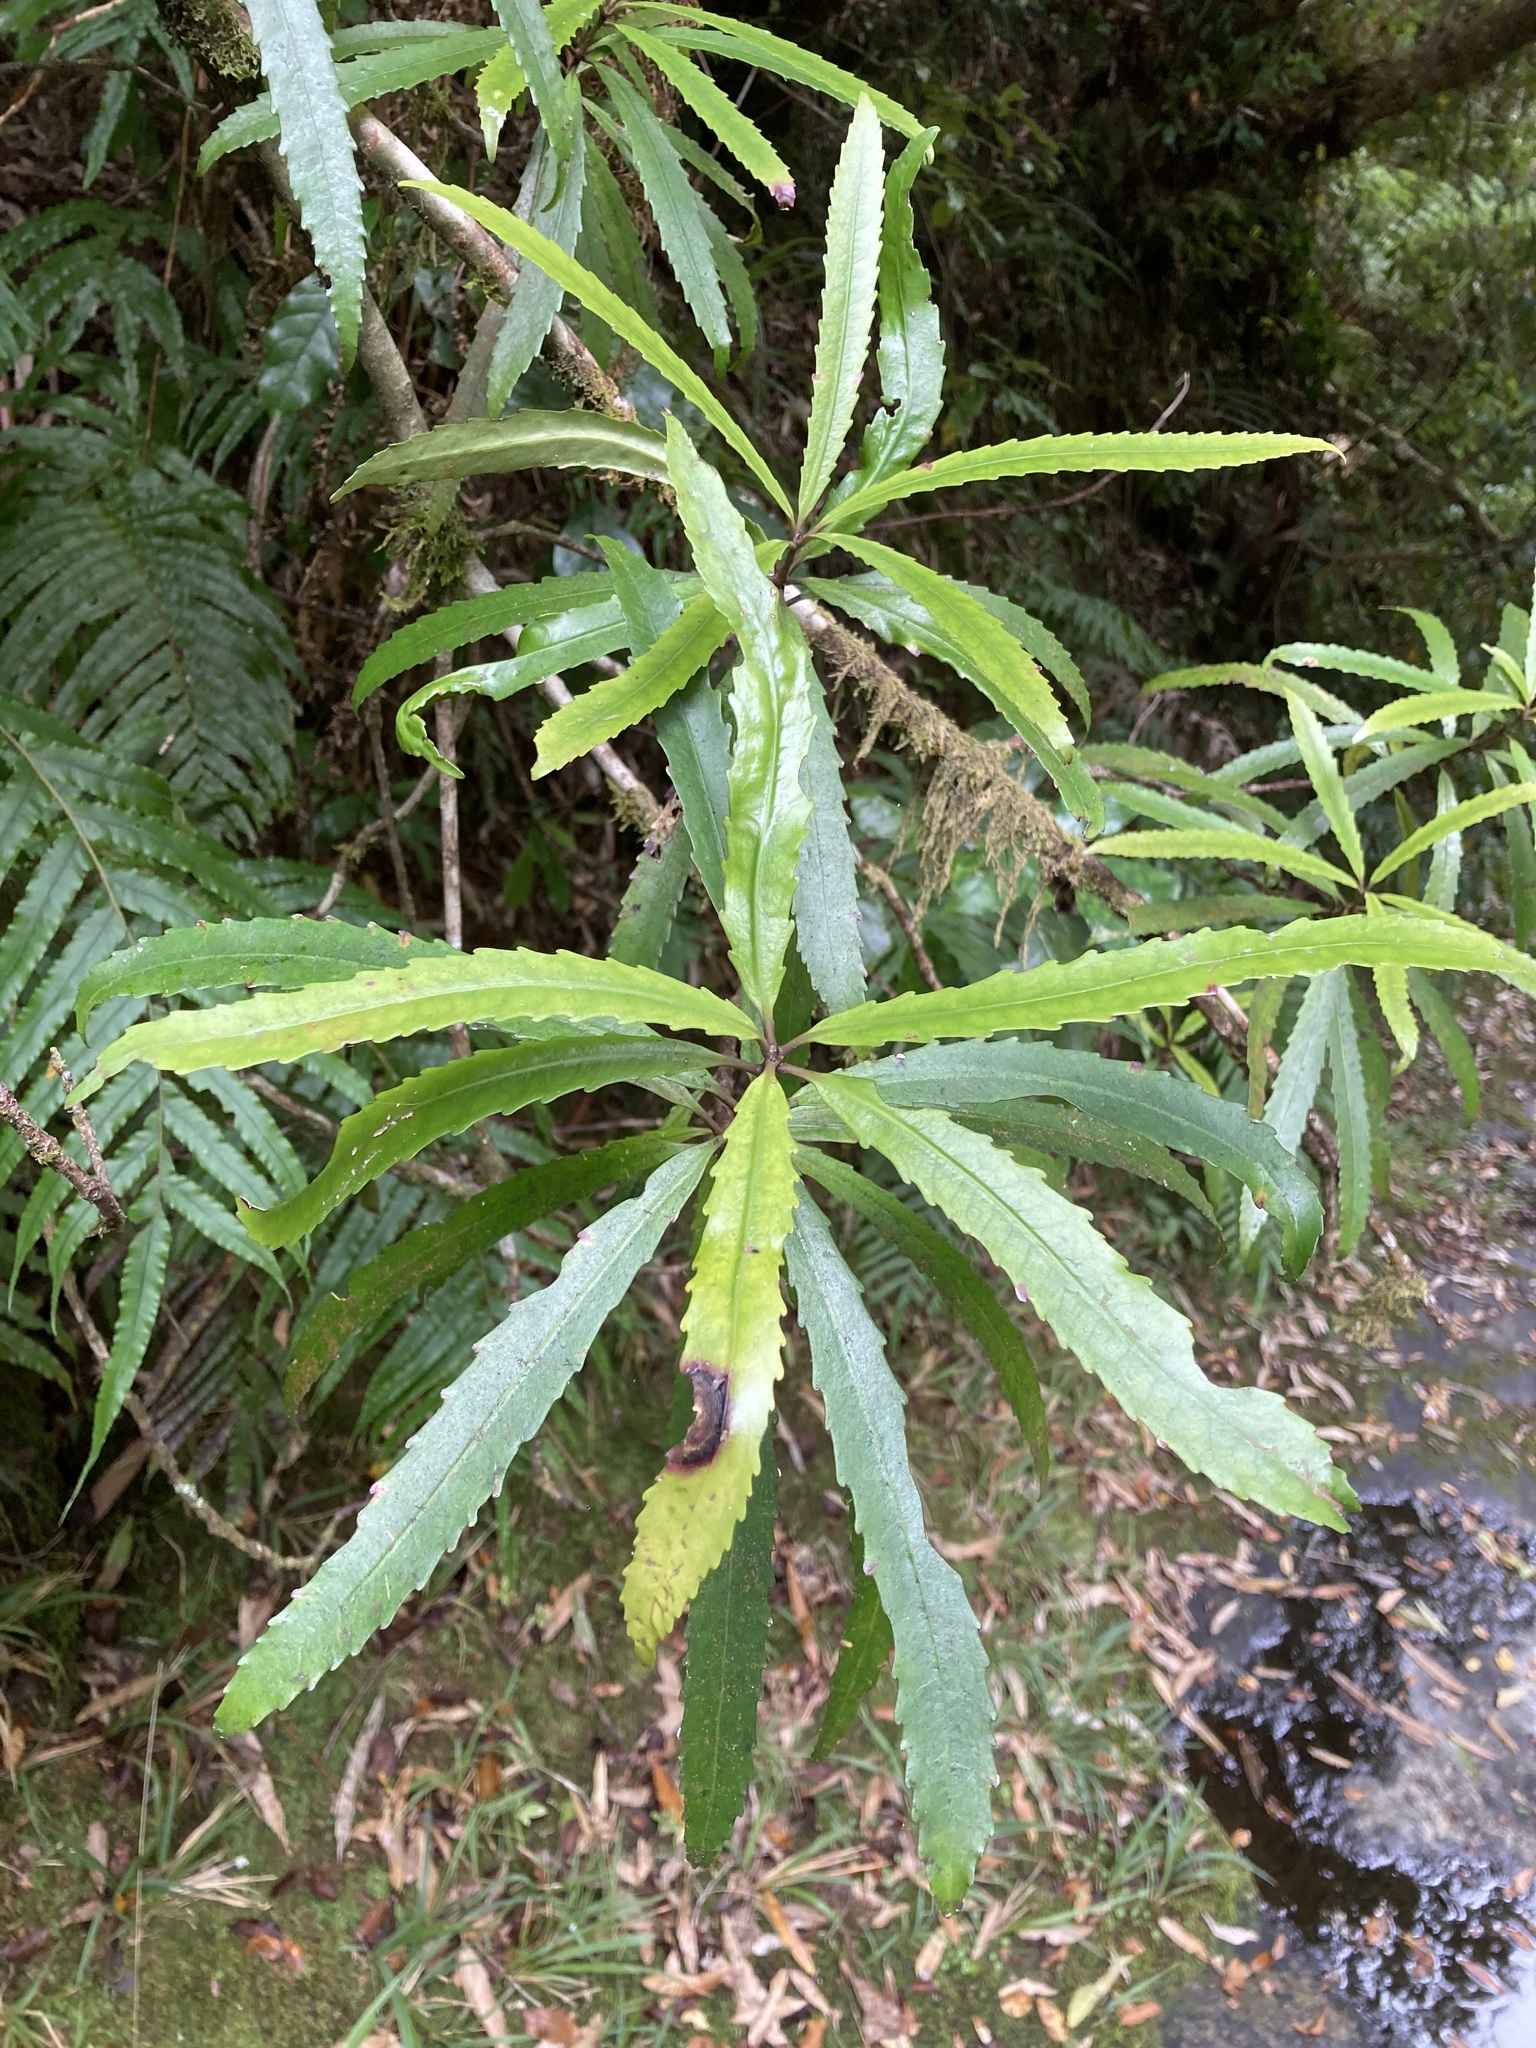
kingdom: Plantae
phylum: Tracheophyta
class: Magnoliopsida
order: Crossosomatales
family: Ixerbaceae
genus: Ixerba
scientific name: Ixerba brexioides
